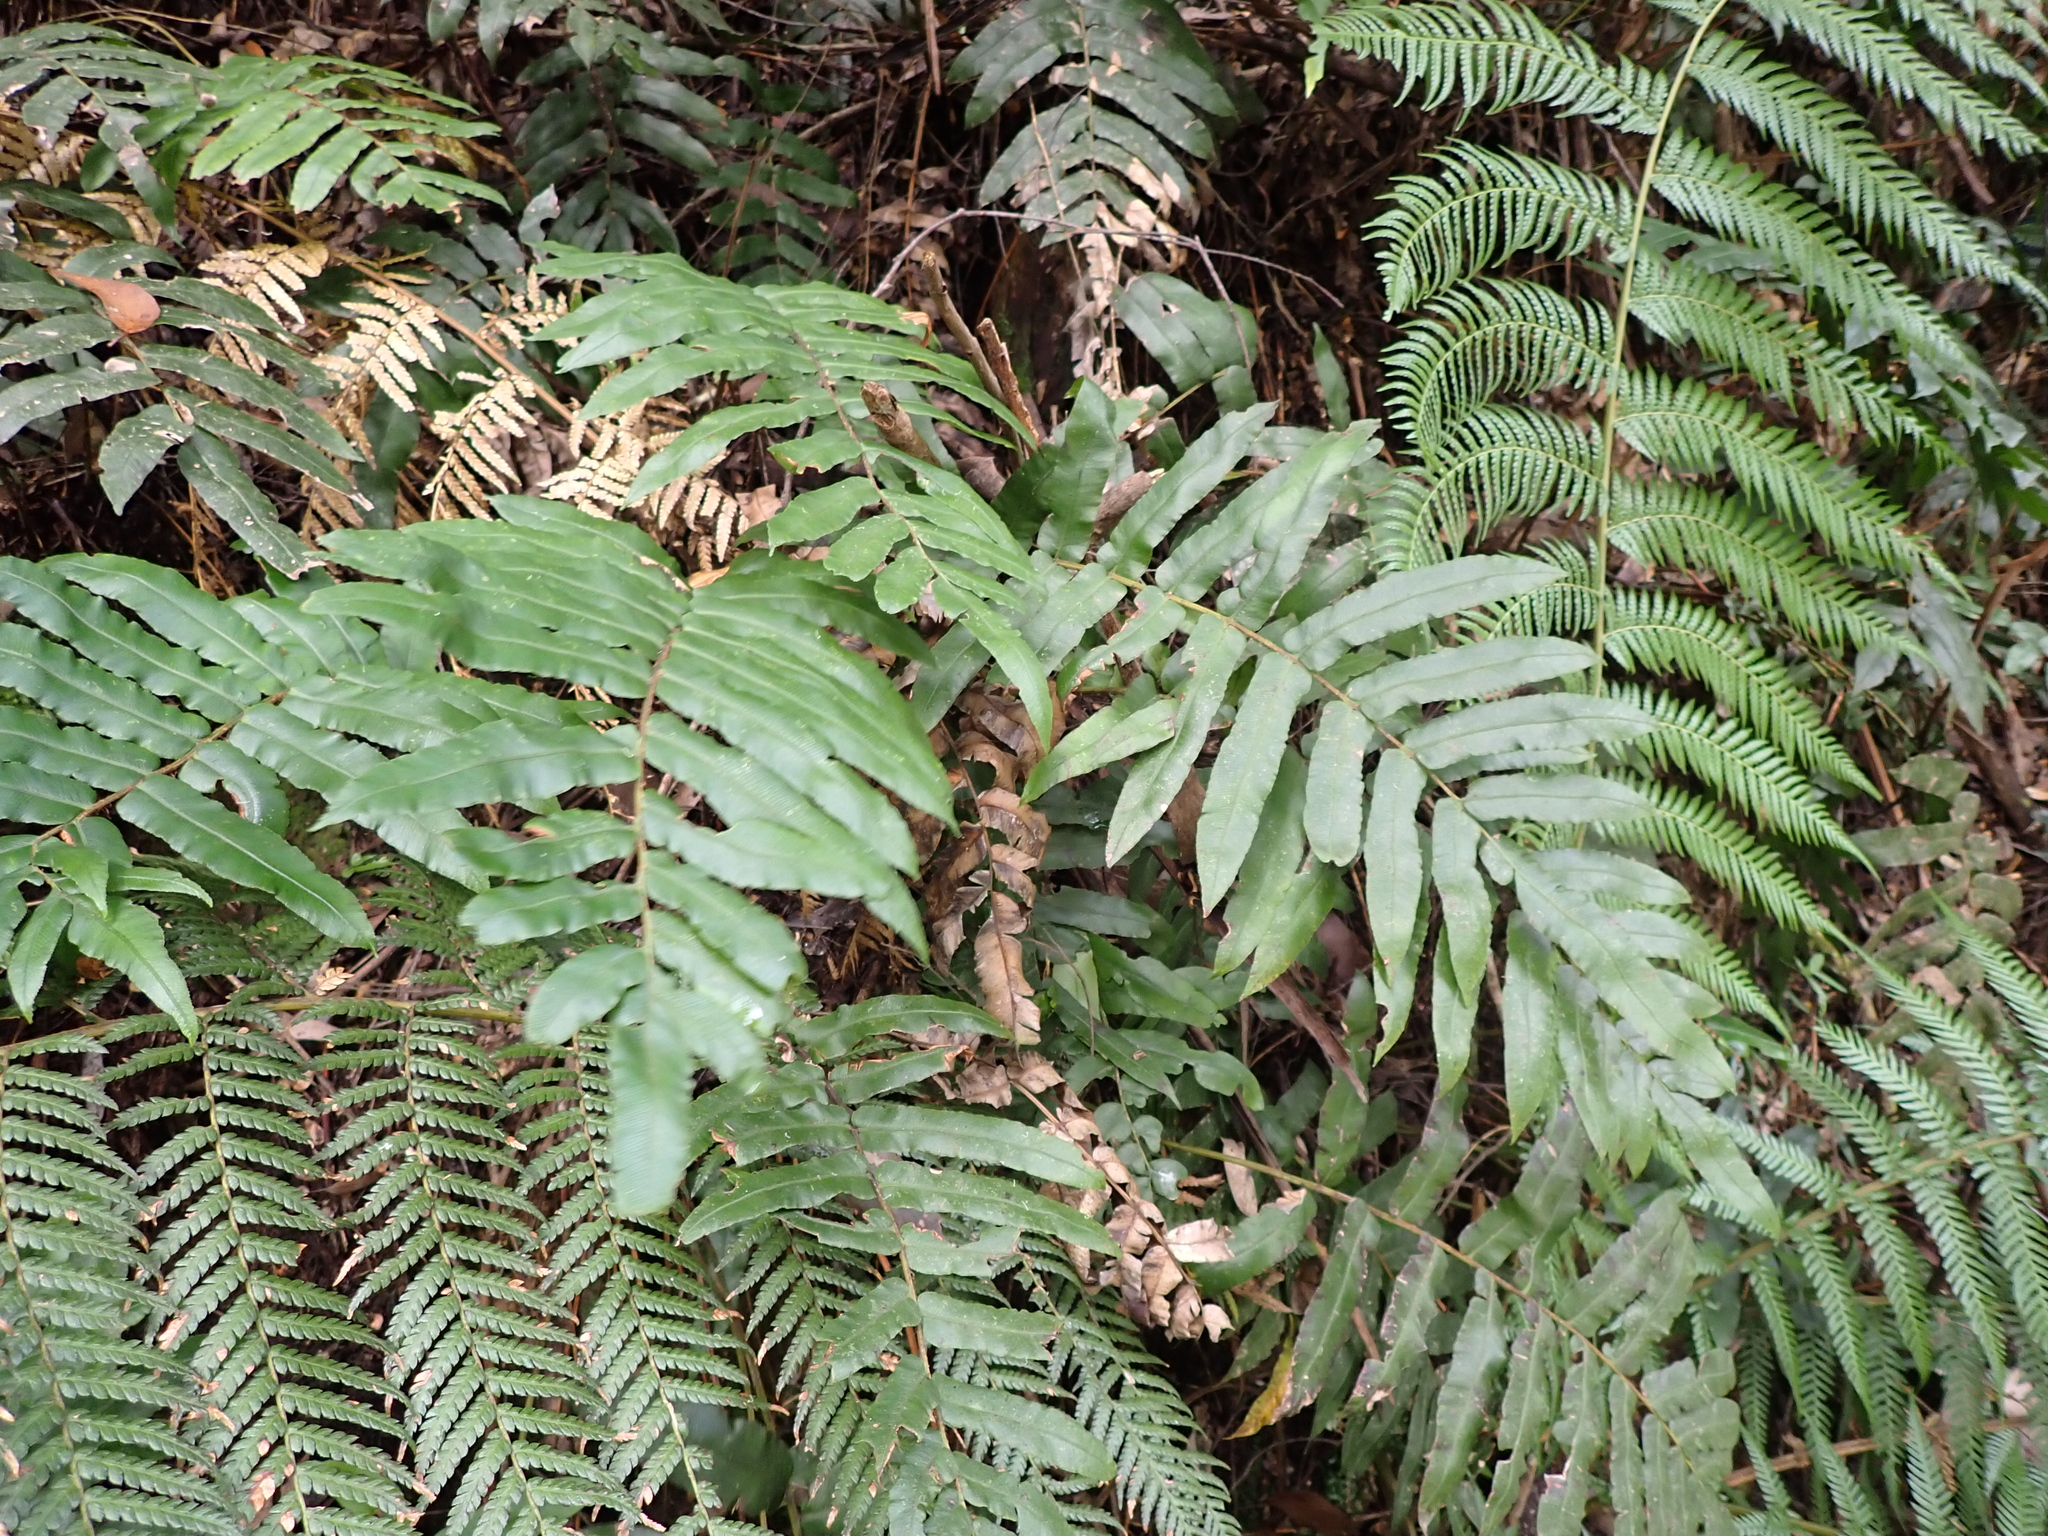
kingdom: Plantae
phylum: Tracheophyta
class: Polypodiopsida
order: Polypodiales
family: Blechnaceae
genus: Parablechnum
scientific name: Parablechnum wattsii
